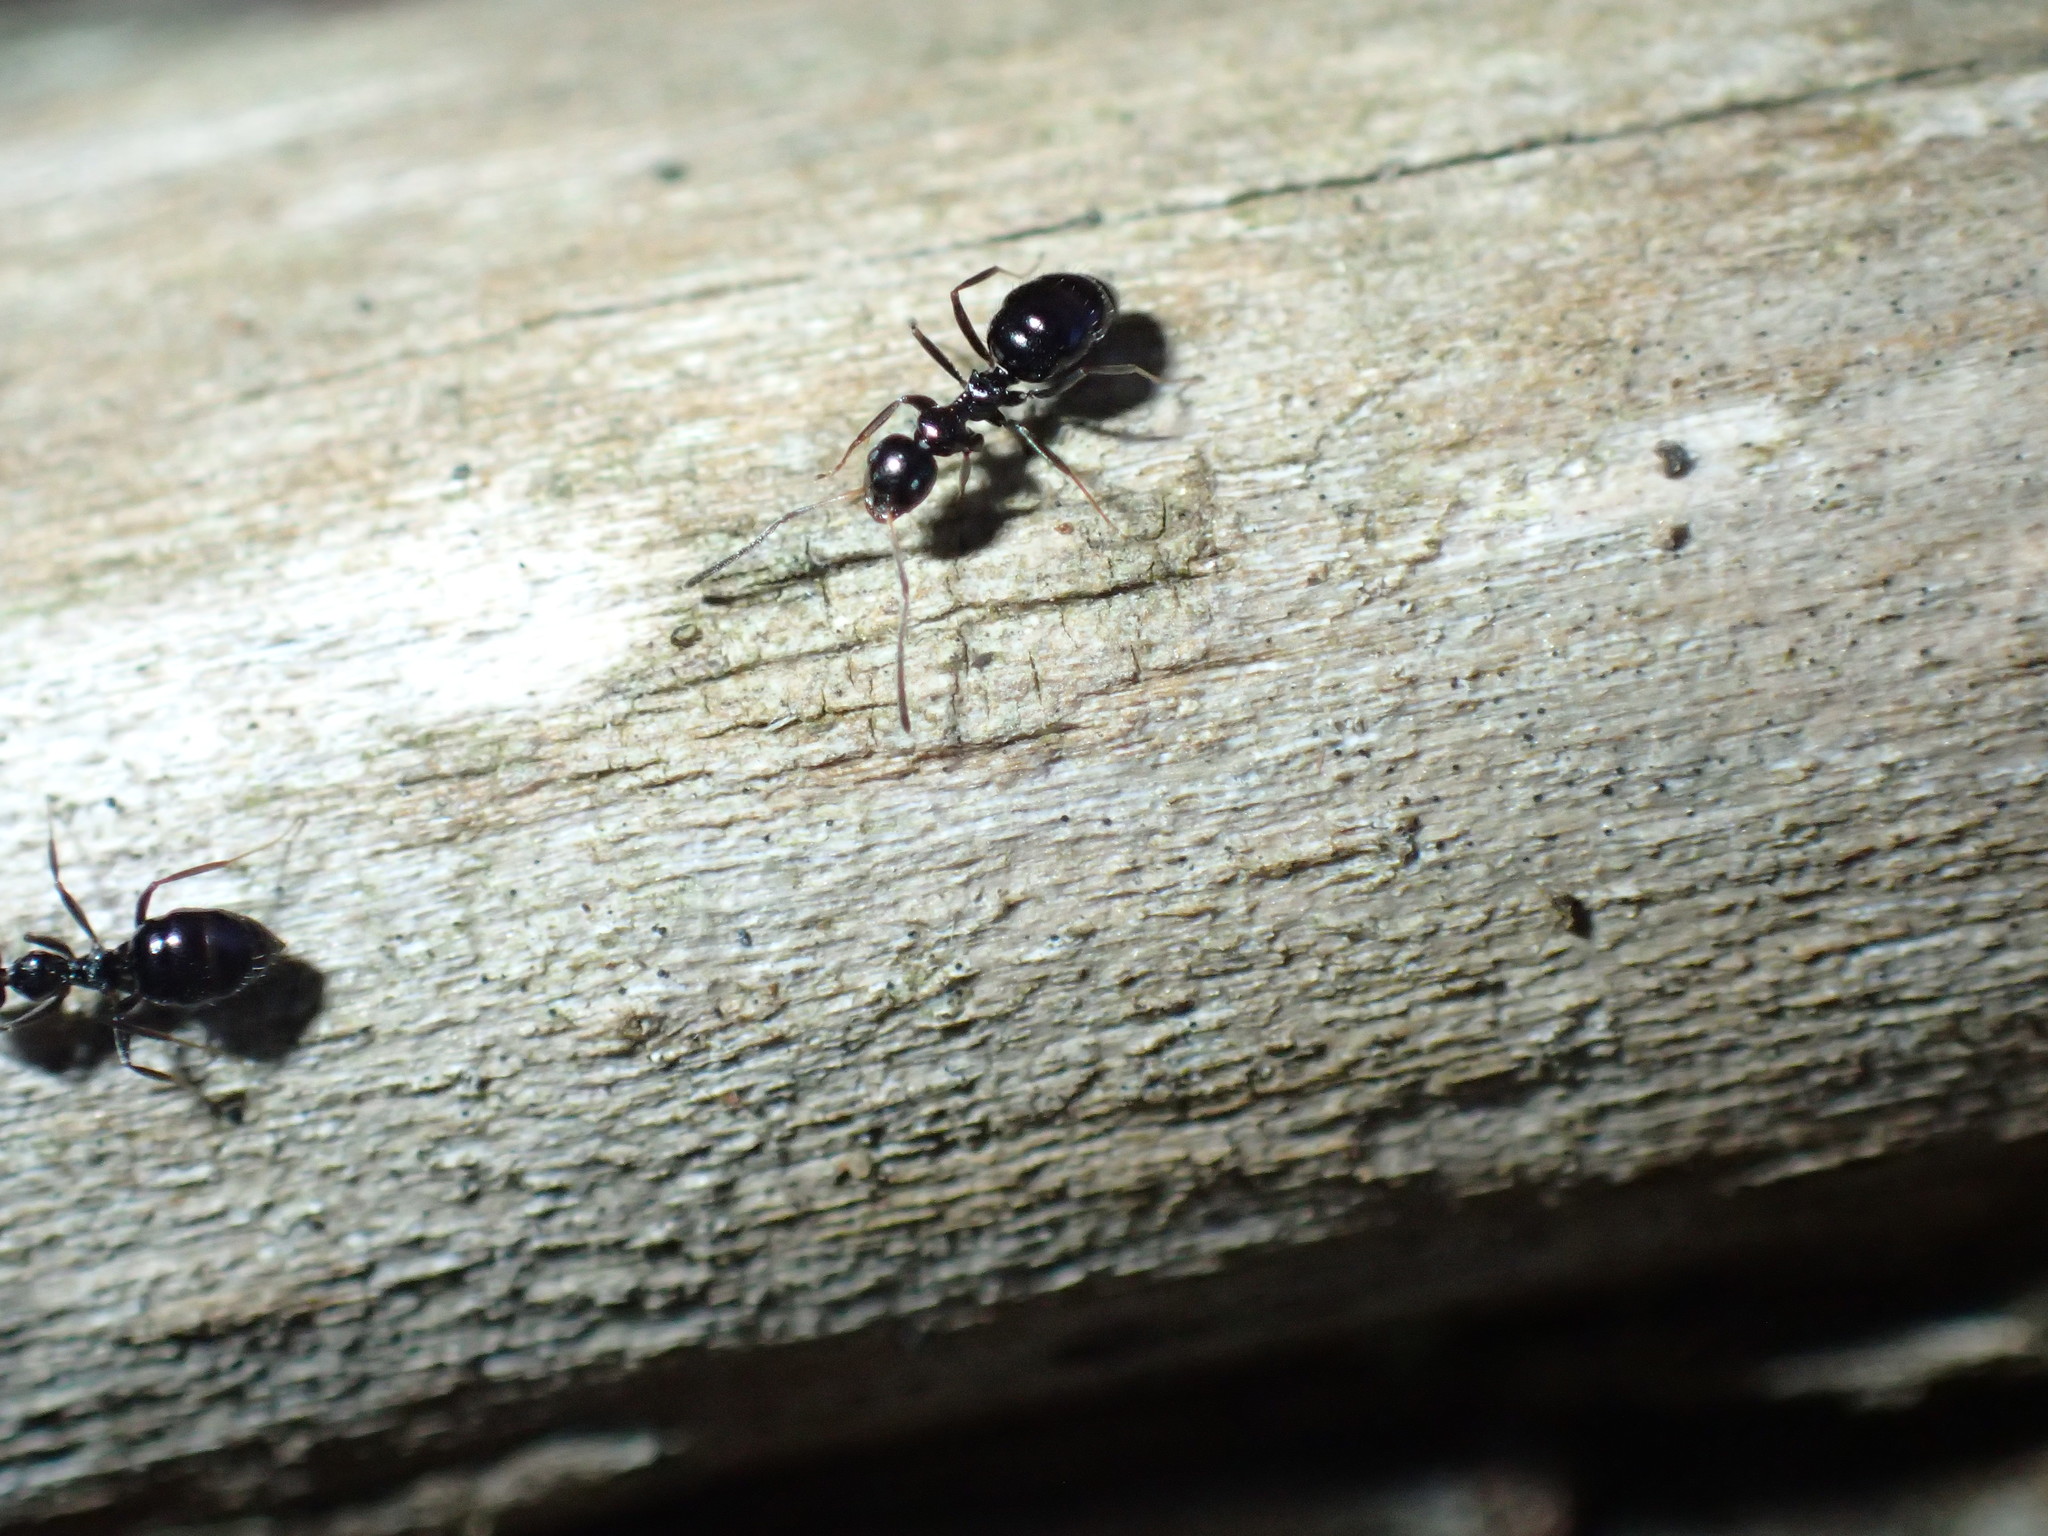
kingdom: Animalia
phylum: Arthropoda
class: Insecta
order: Hymenoptera
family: Formicidae
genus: Lepisiota
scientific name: Lepisiota capensis
